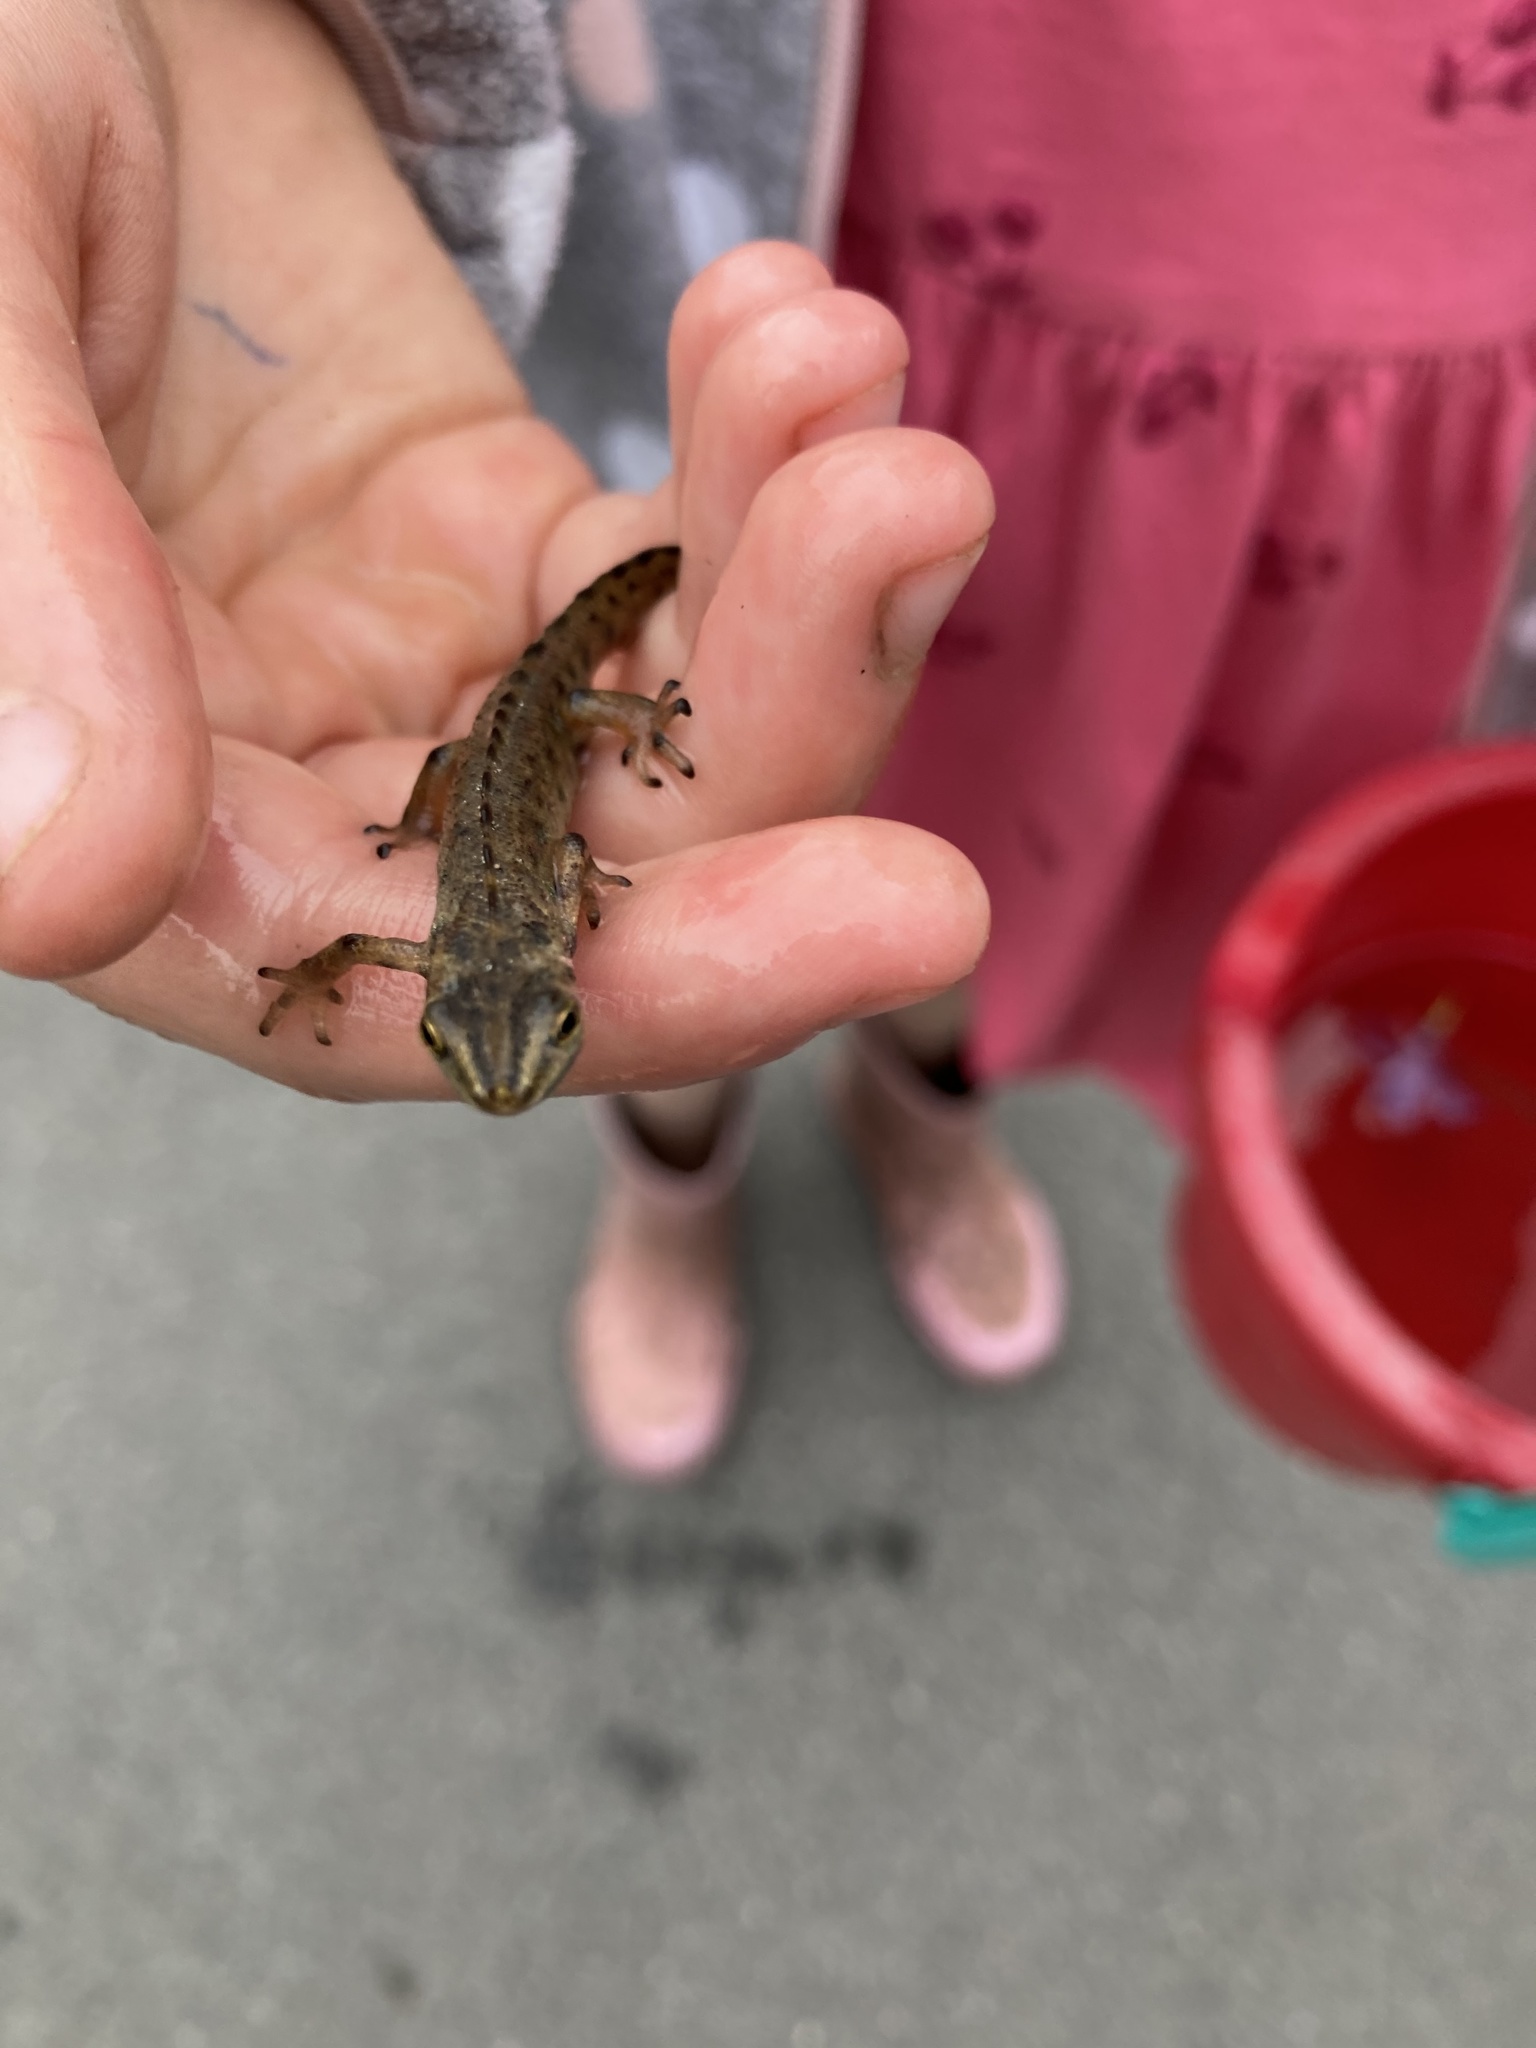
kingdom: Animalia
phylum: Chordata
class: Amphibia
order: Caudata
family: Salamandridae
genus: Lissotriton
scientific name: Lissotriton vulgaris
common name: Smooth newt
